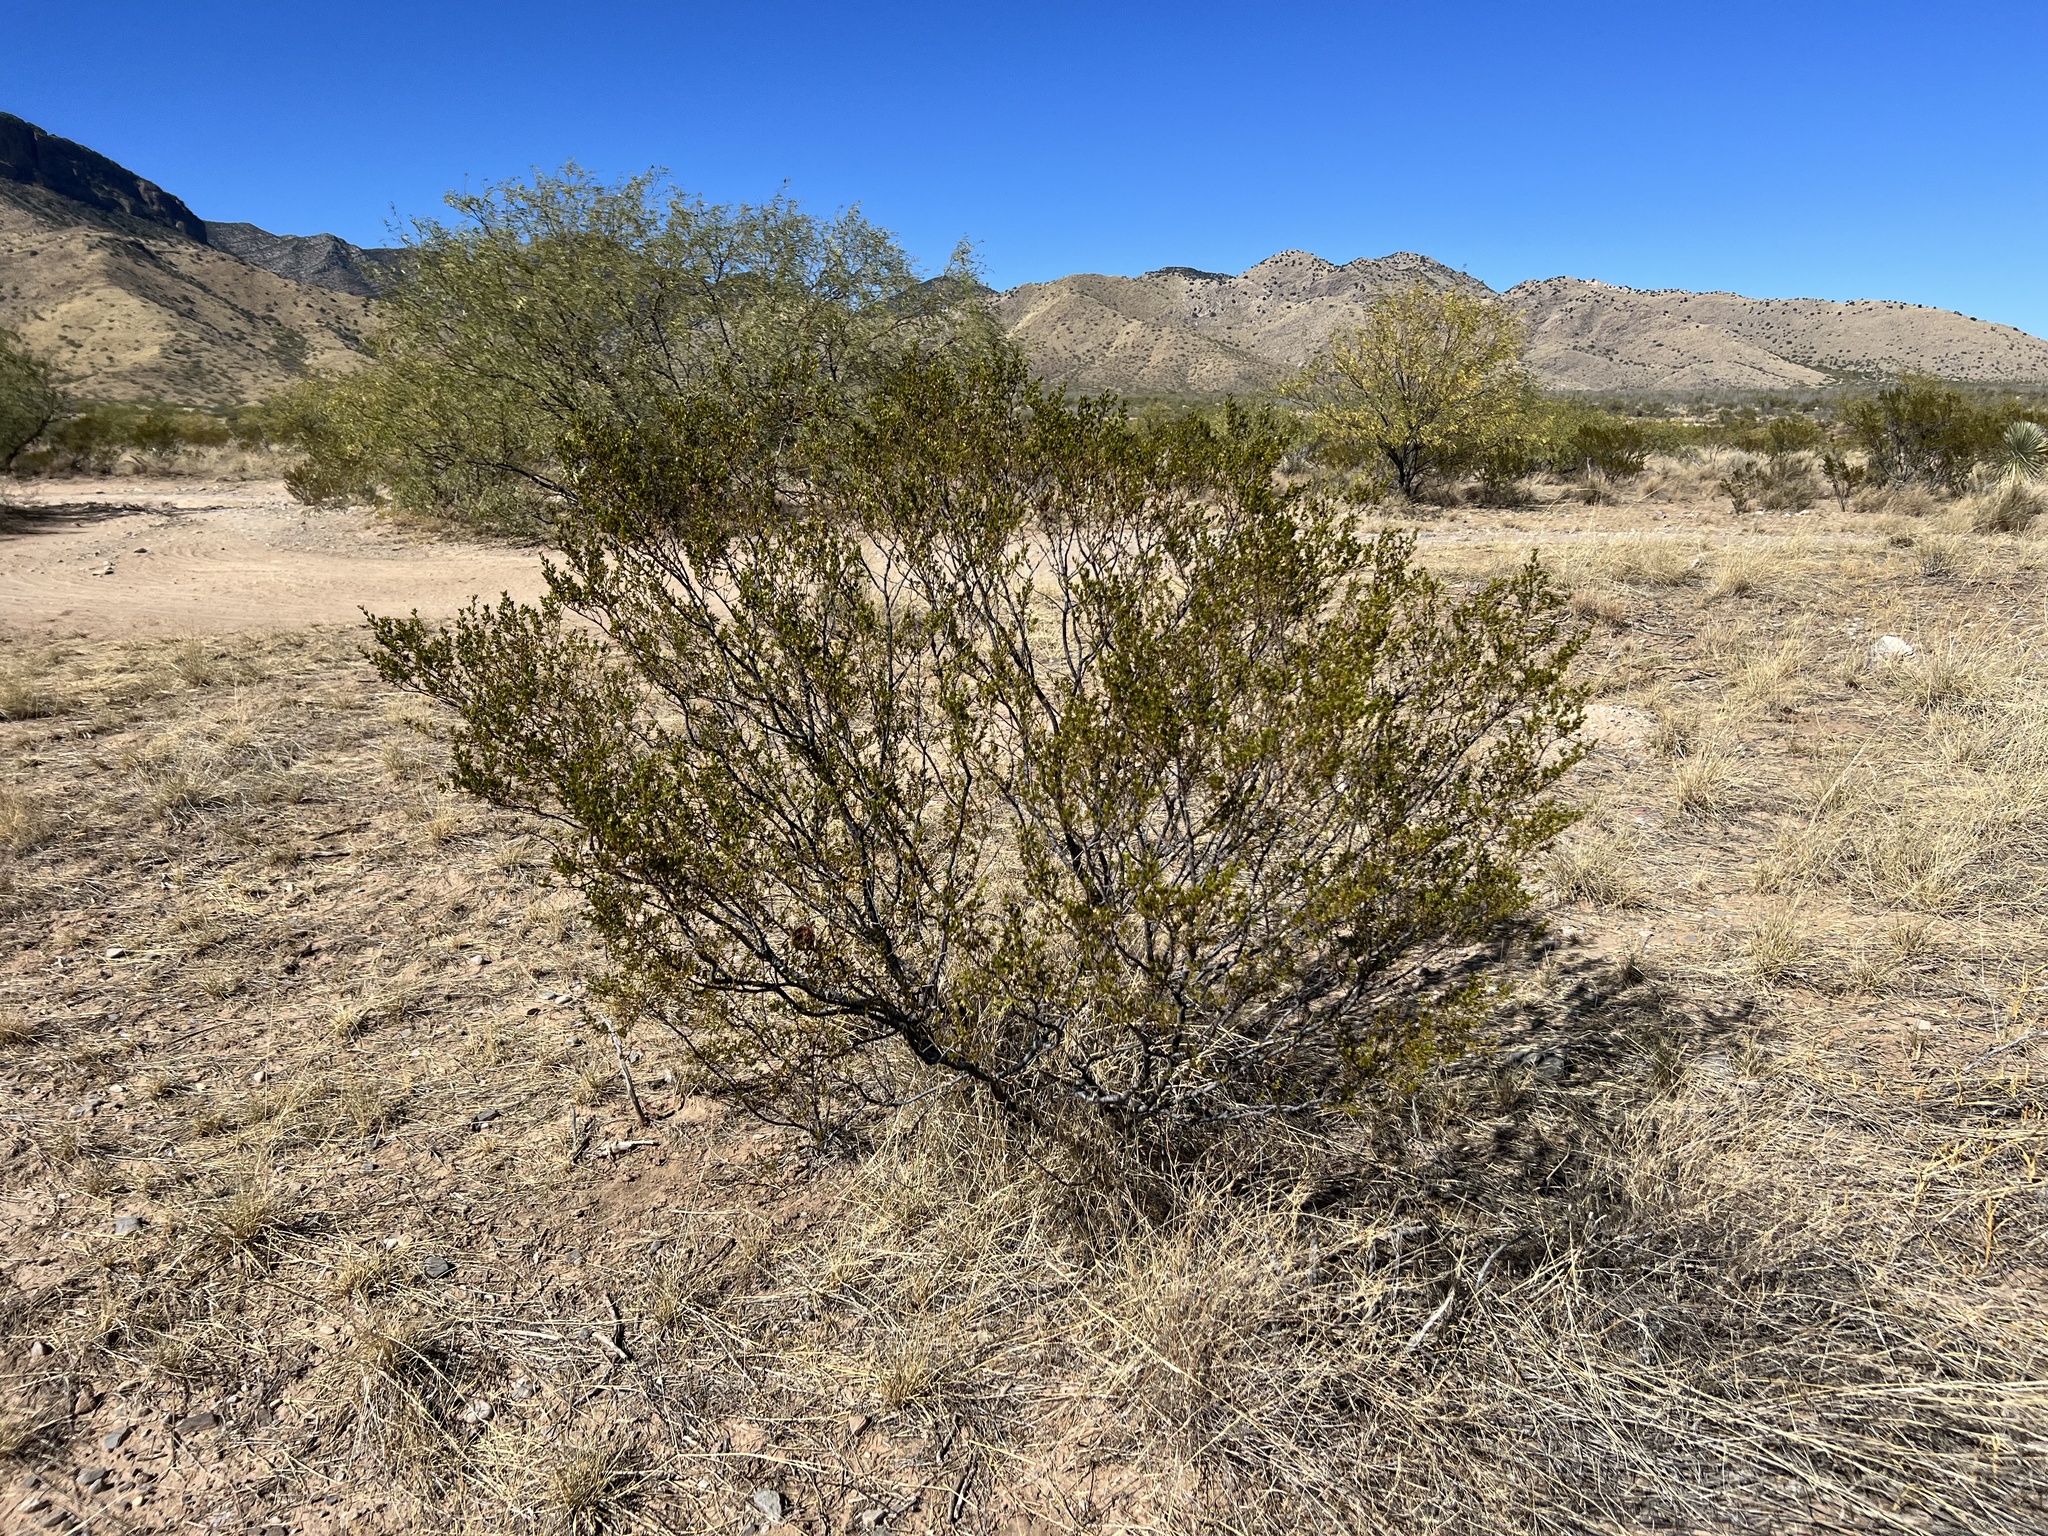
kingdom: Plantae
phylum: Tracheophyta
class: Magnoliopsida
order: Zygophyllales
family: Zygophyllaceae
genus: Larrea
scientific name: Larrea tridentata
